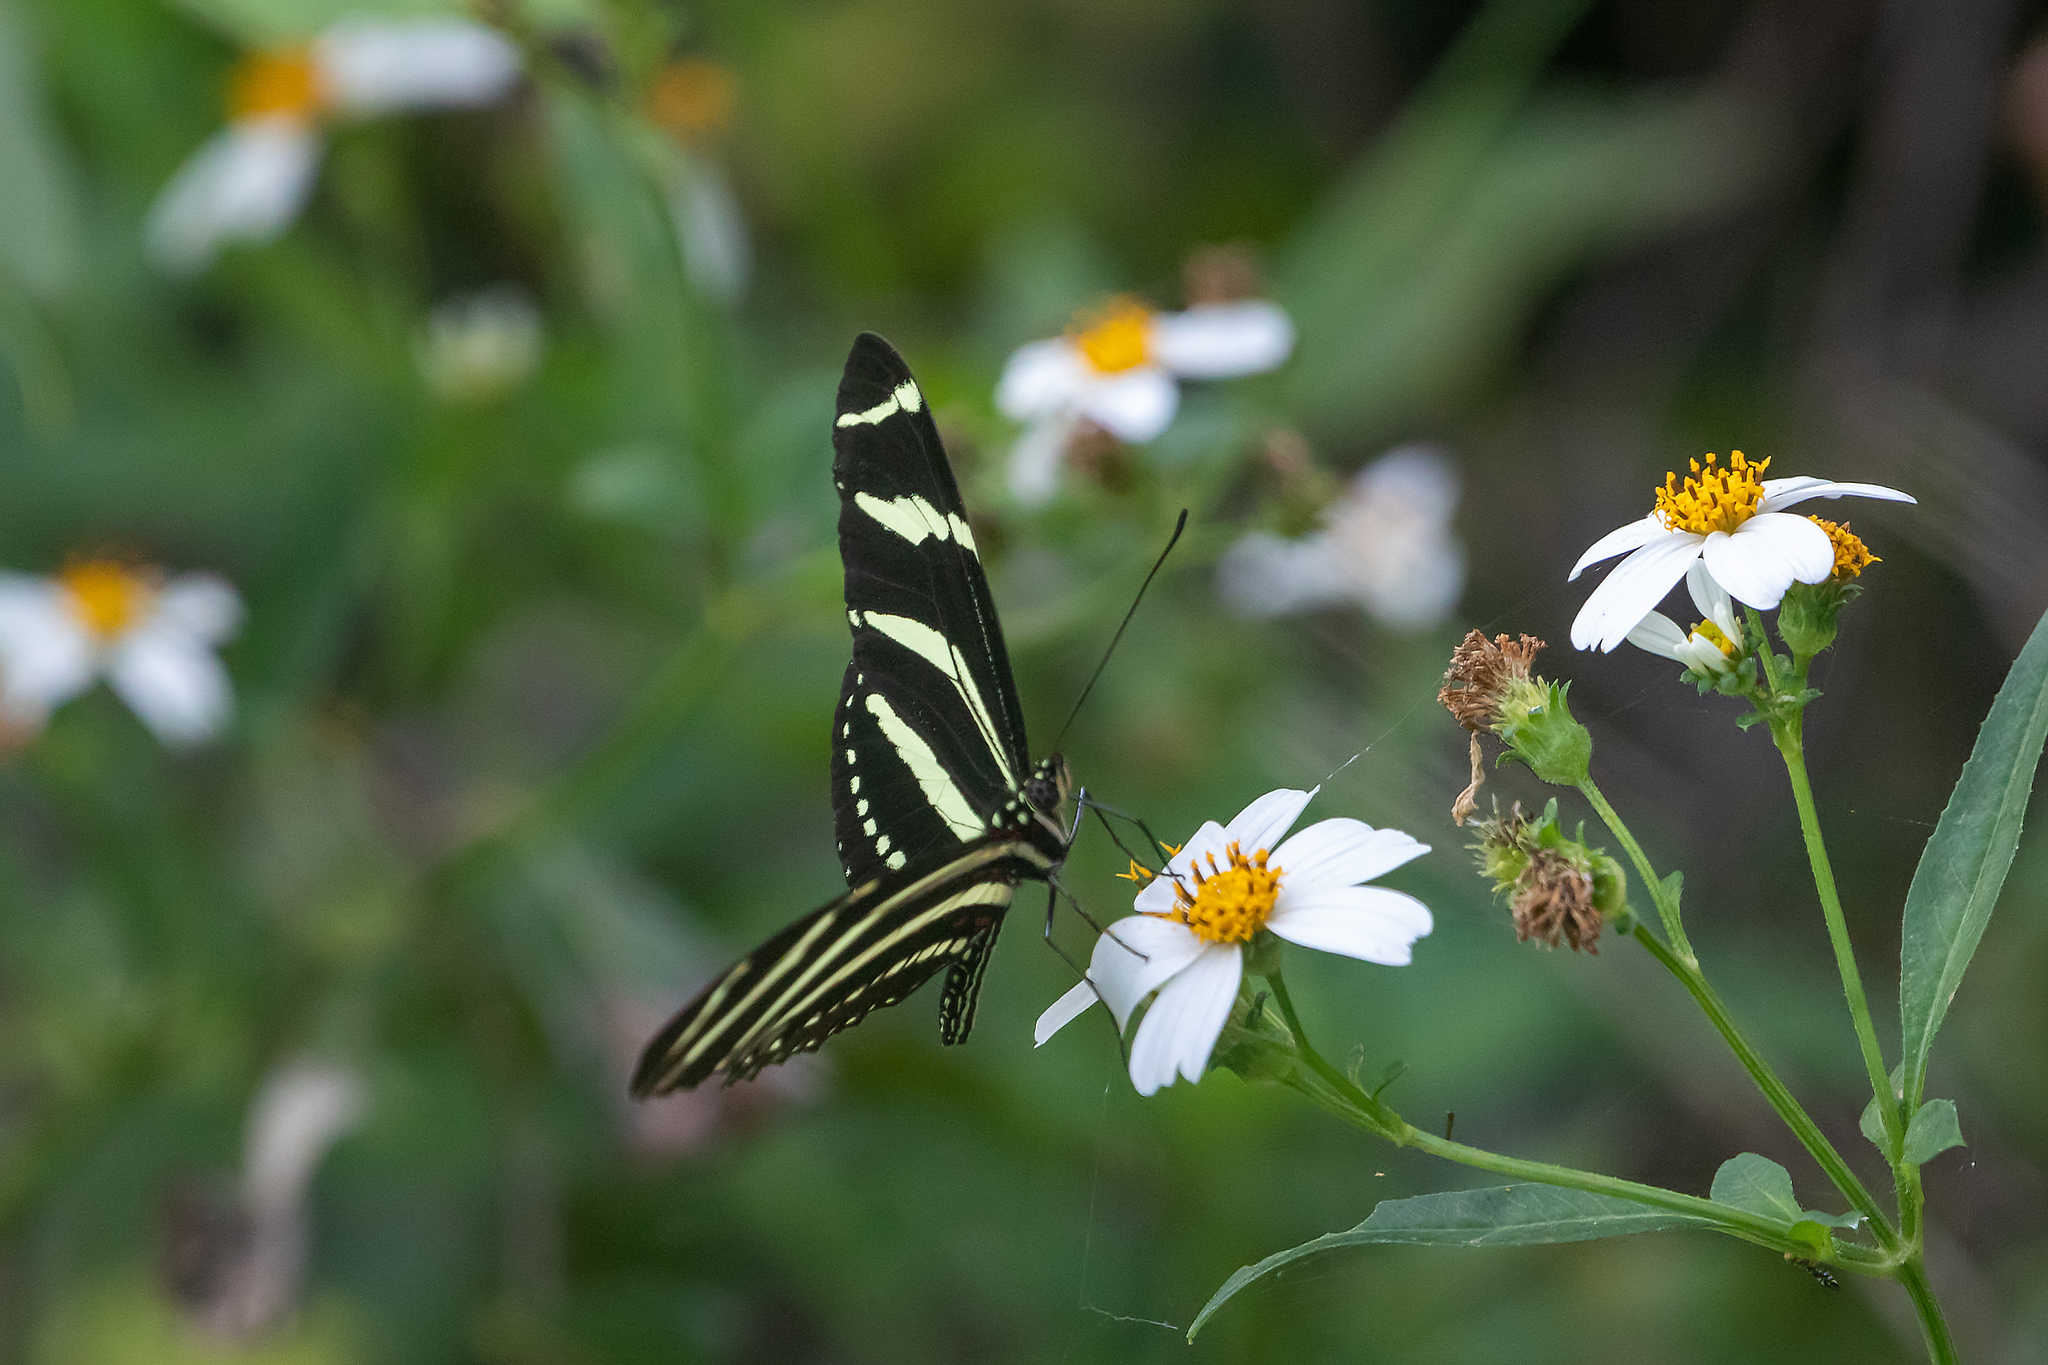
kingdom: Animalia
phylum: Arthropoda
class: Insecta
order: Lepidoptera
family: Nymphalidae
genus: Heliconius
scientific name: Heliconius charithonia
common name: Zebra long wing
